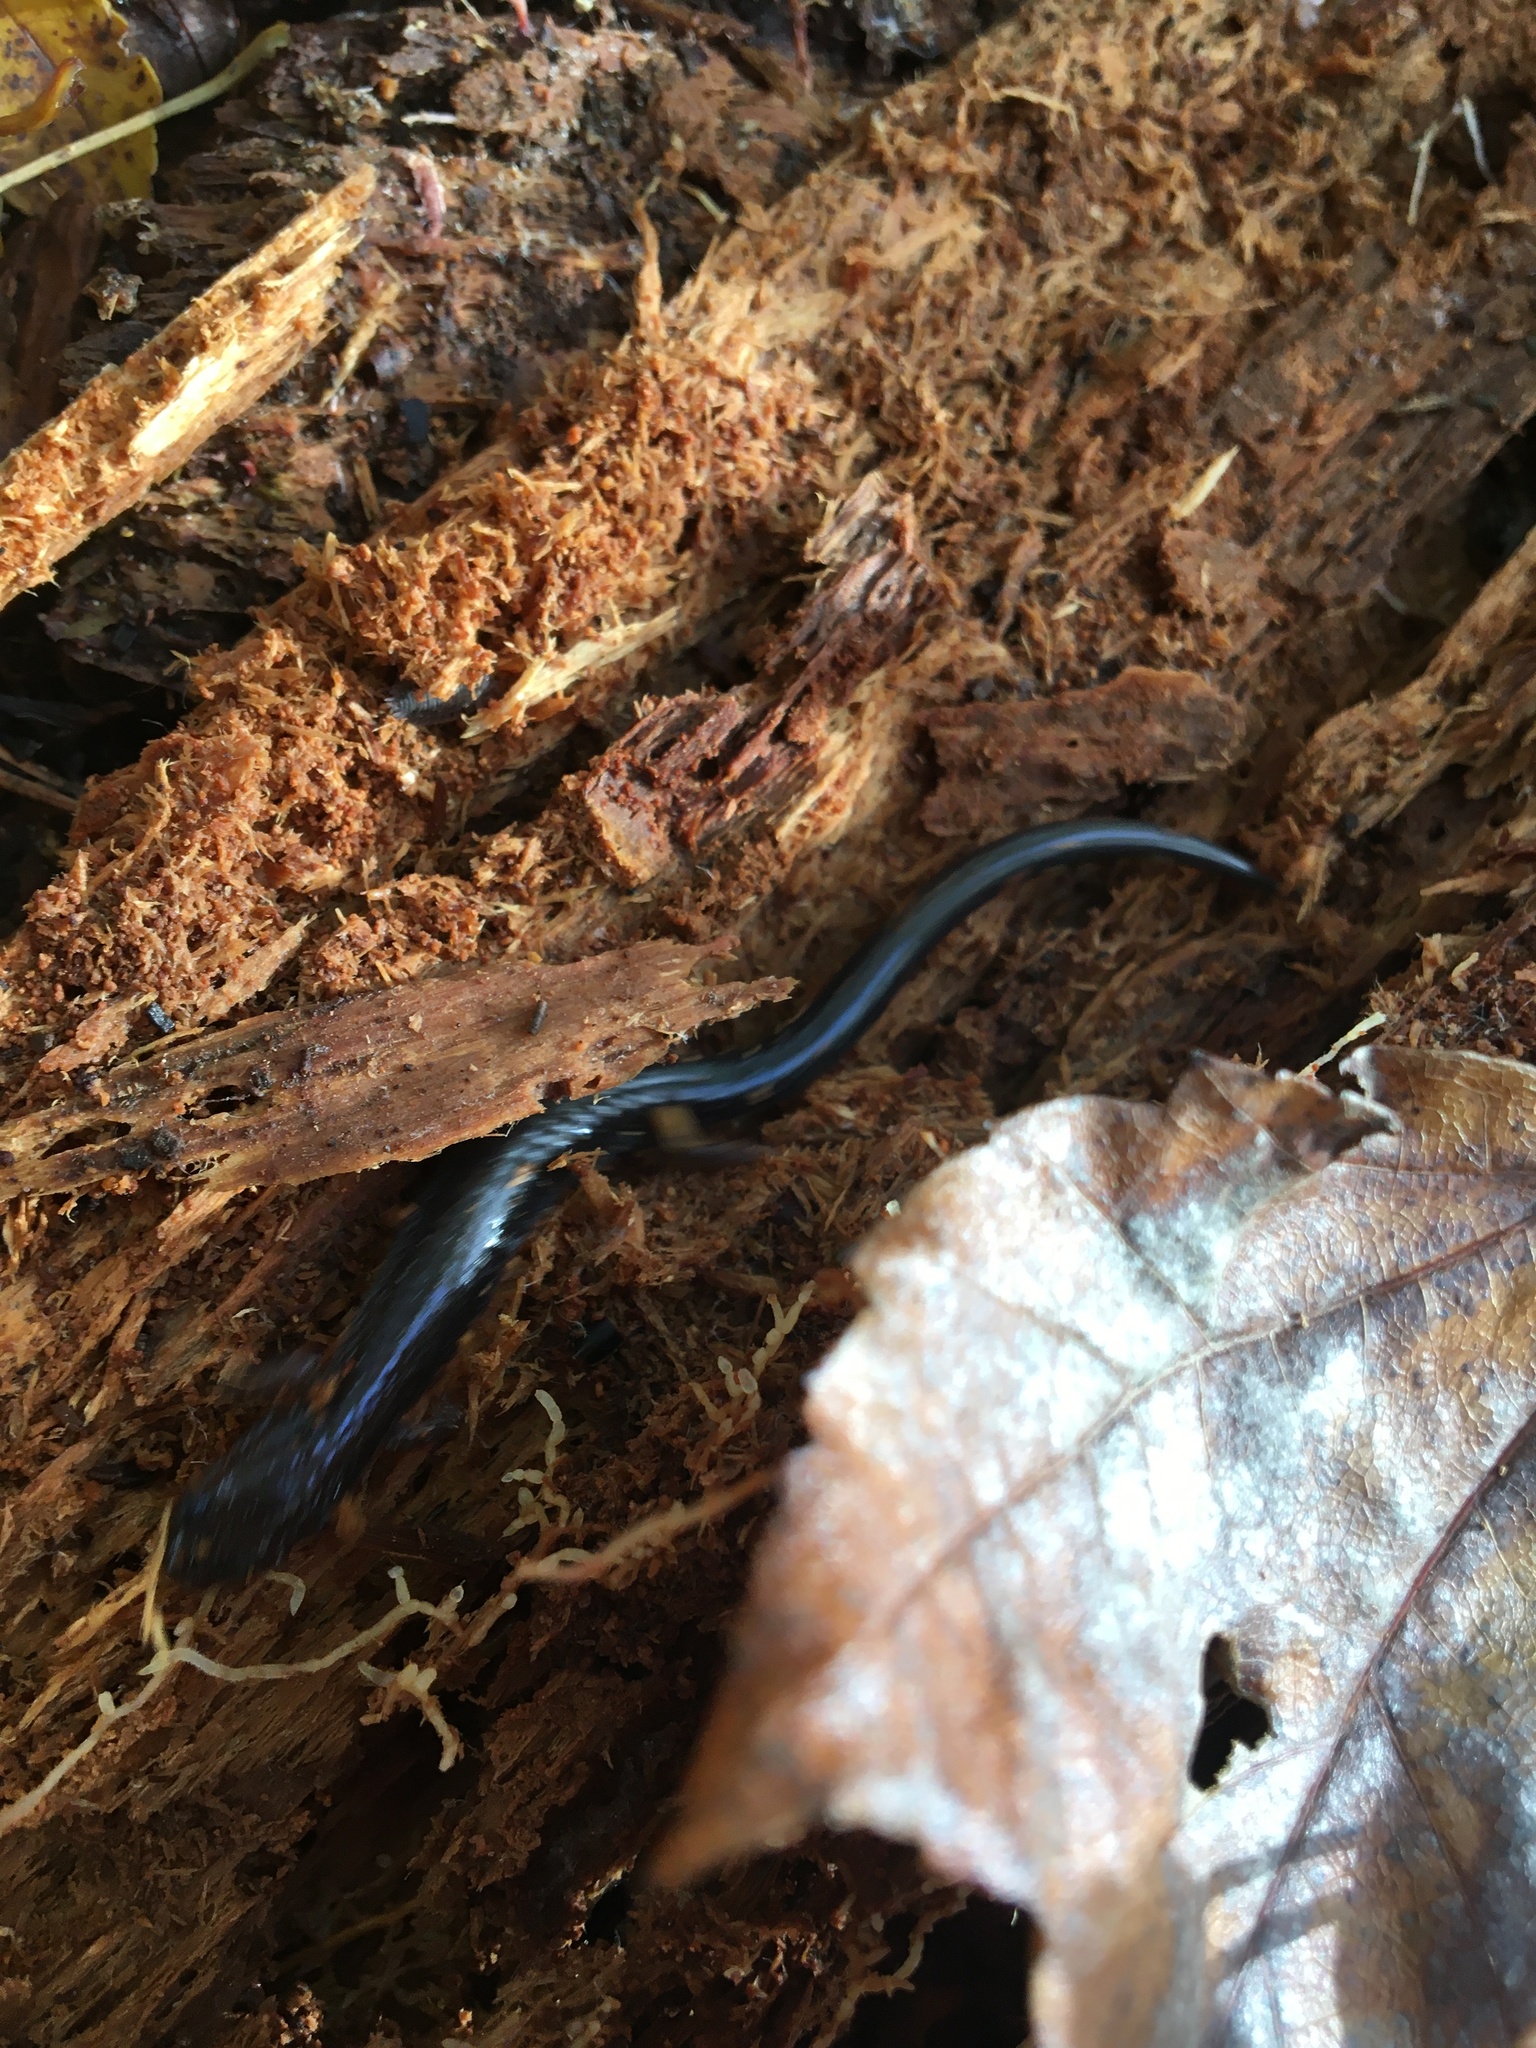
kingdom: Animalia
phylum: Chordata
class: Amphibia
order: Caudata
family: Plethodontidae
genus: Plethodon
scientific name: Plethodon cinereus
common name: Redback salamander
